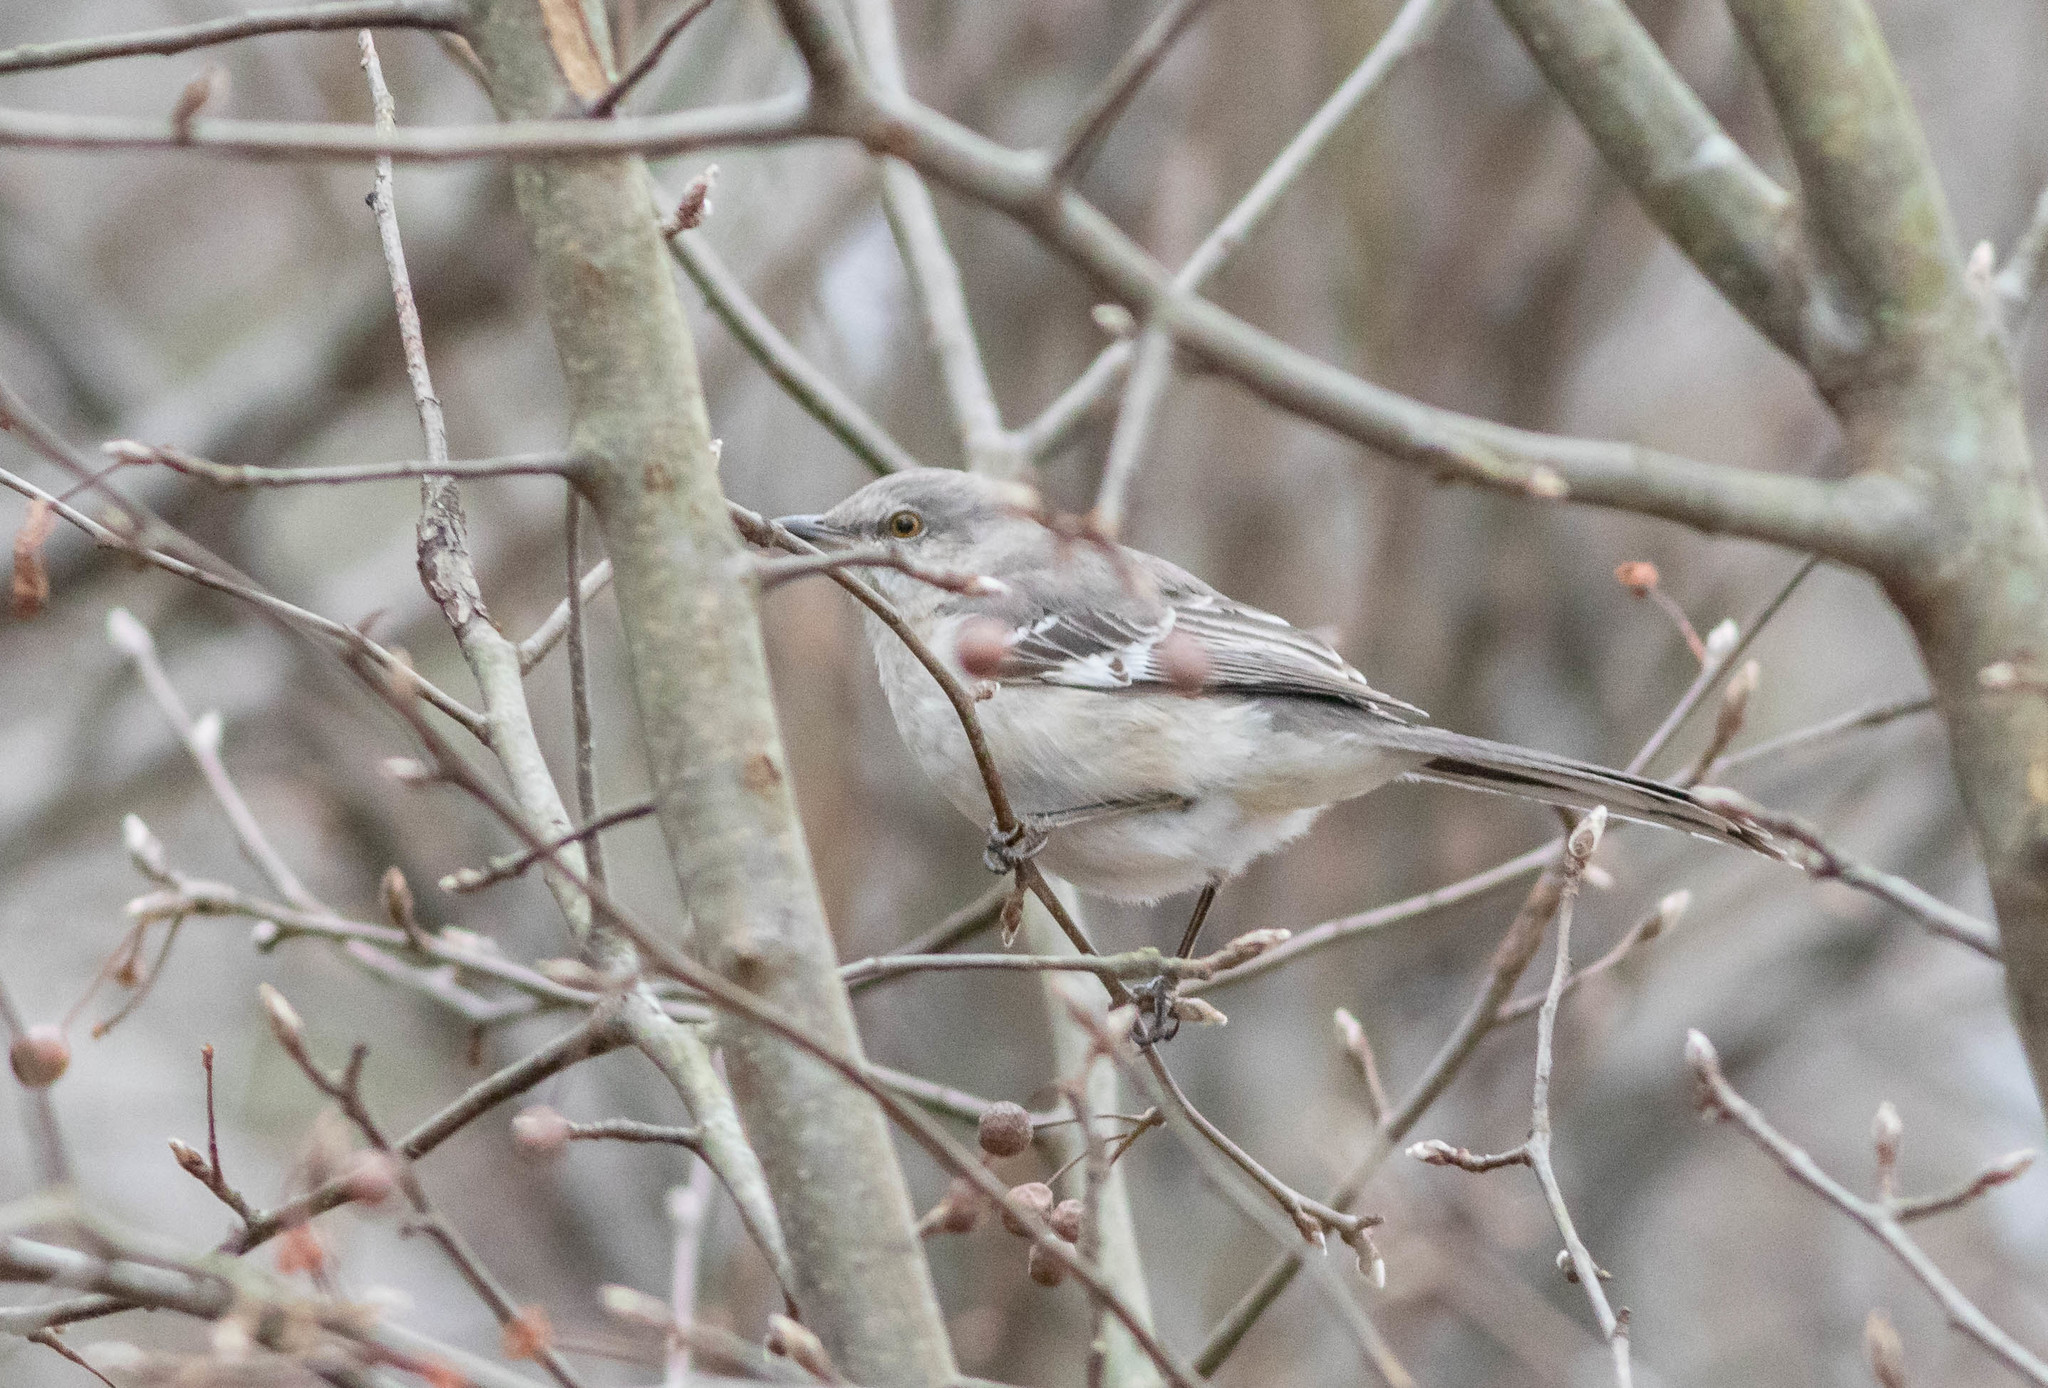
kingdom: Animalia
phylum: Chordata
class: Aves
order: Passeriformes
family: Mimidae
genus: Mimus
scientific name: Mimus polyglottos
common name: Northern mockingbird
